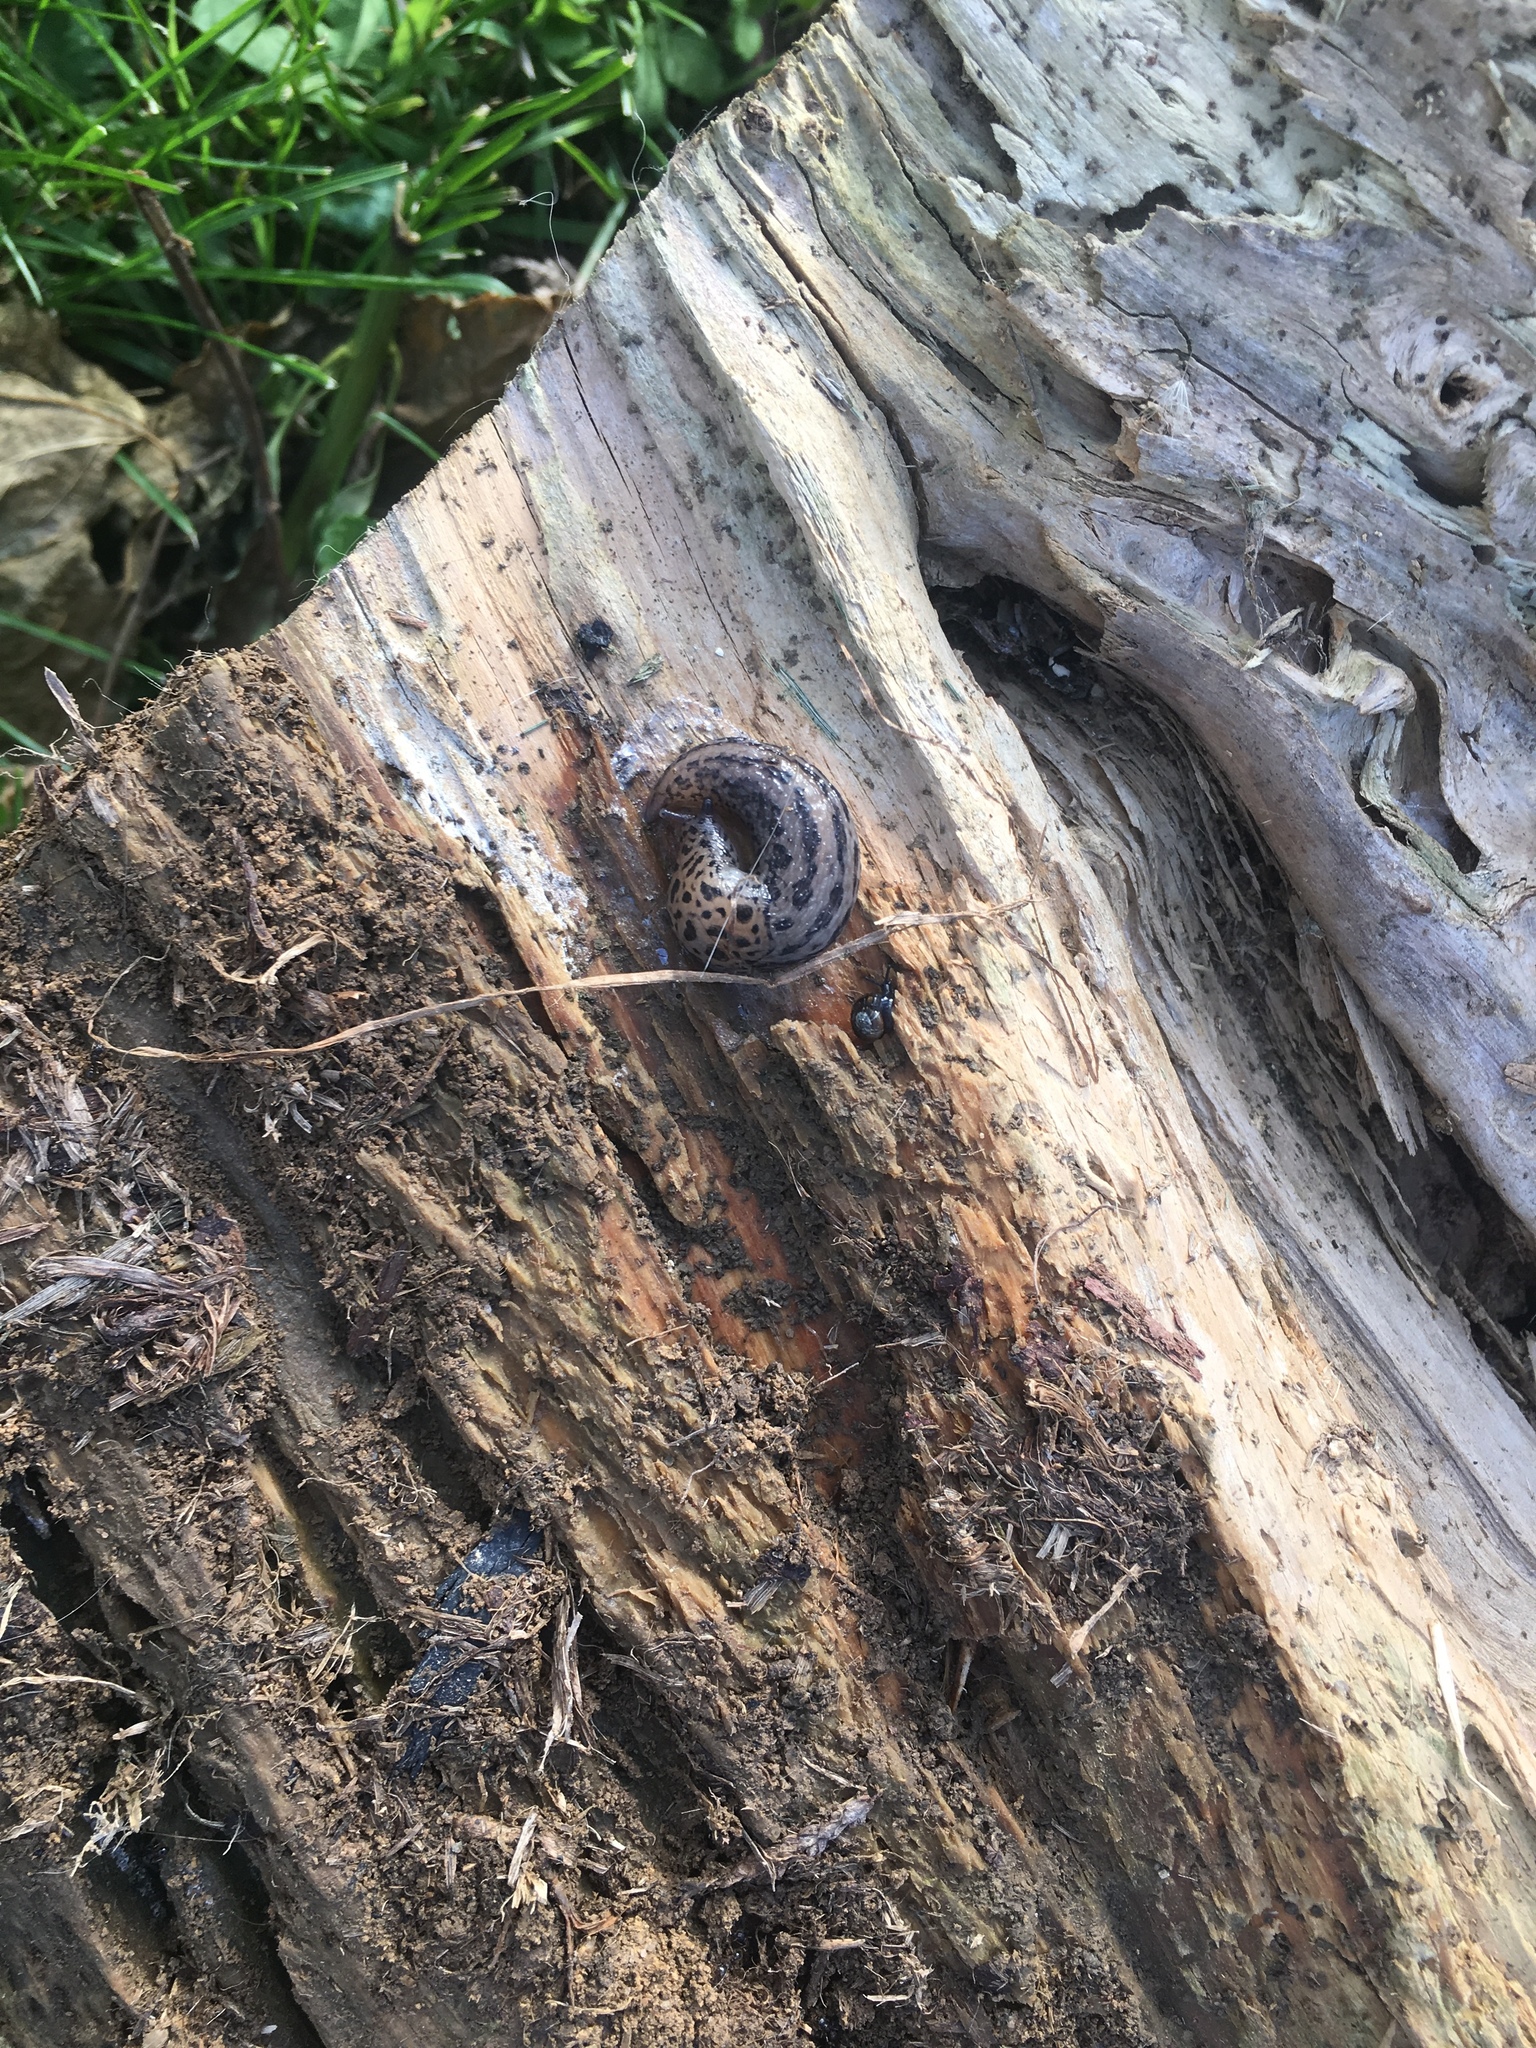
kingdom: Animalia
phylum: Mollusca
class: Gastropoda
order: Stylommatophora
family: Limacidae
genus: Limax
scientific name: Limax maximus
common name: Great grey slug
